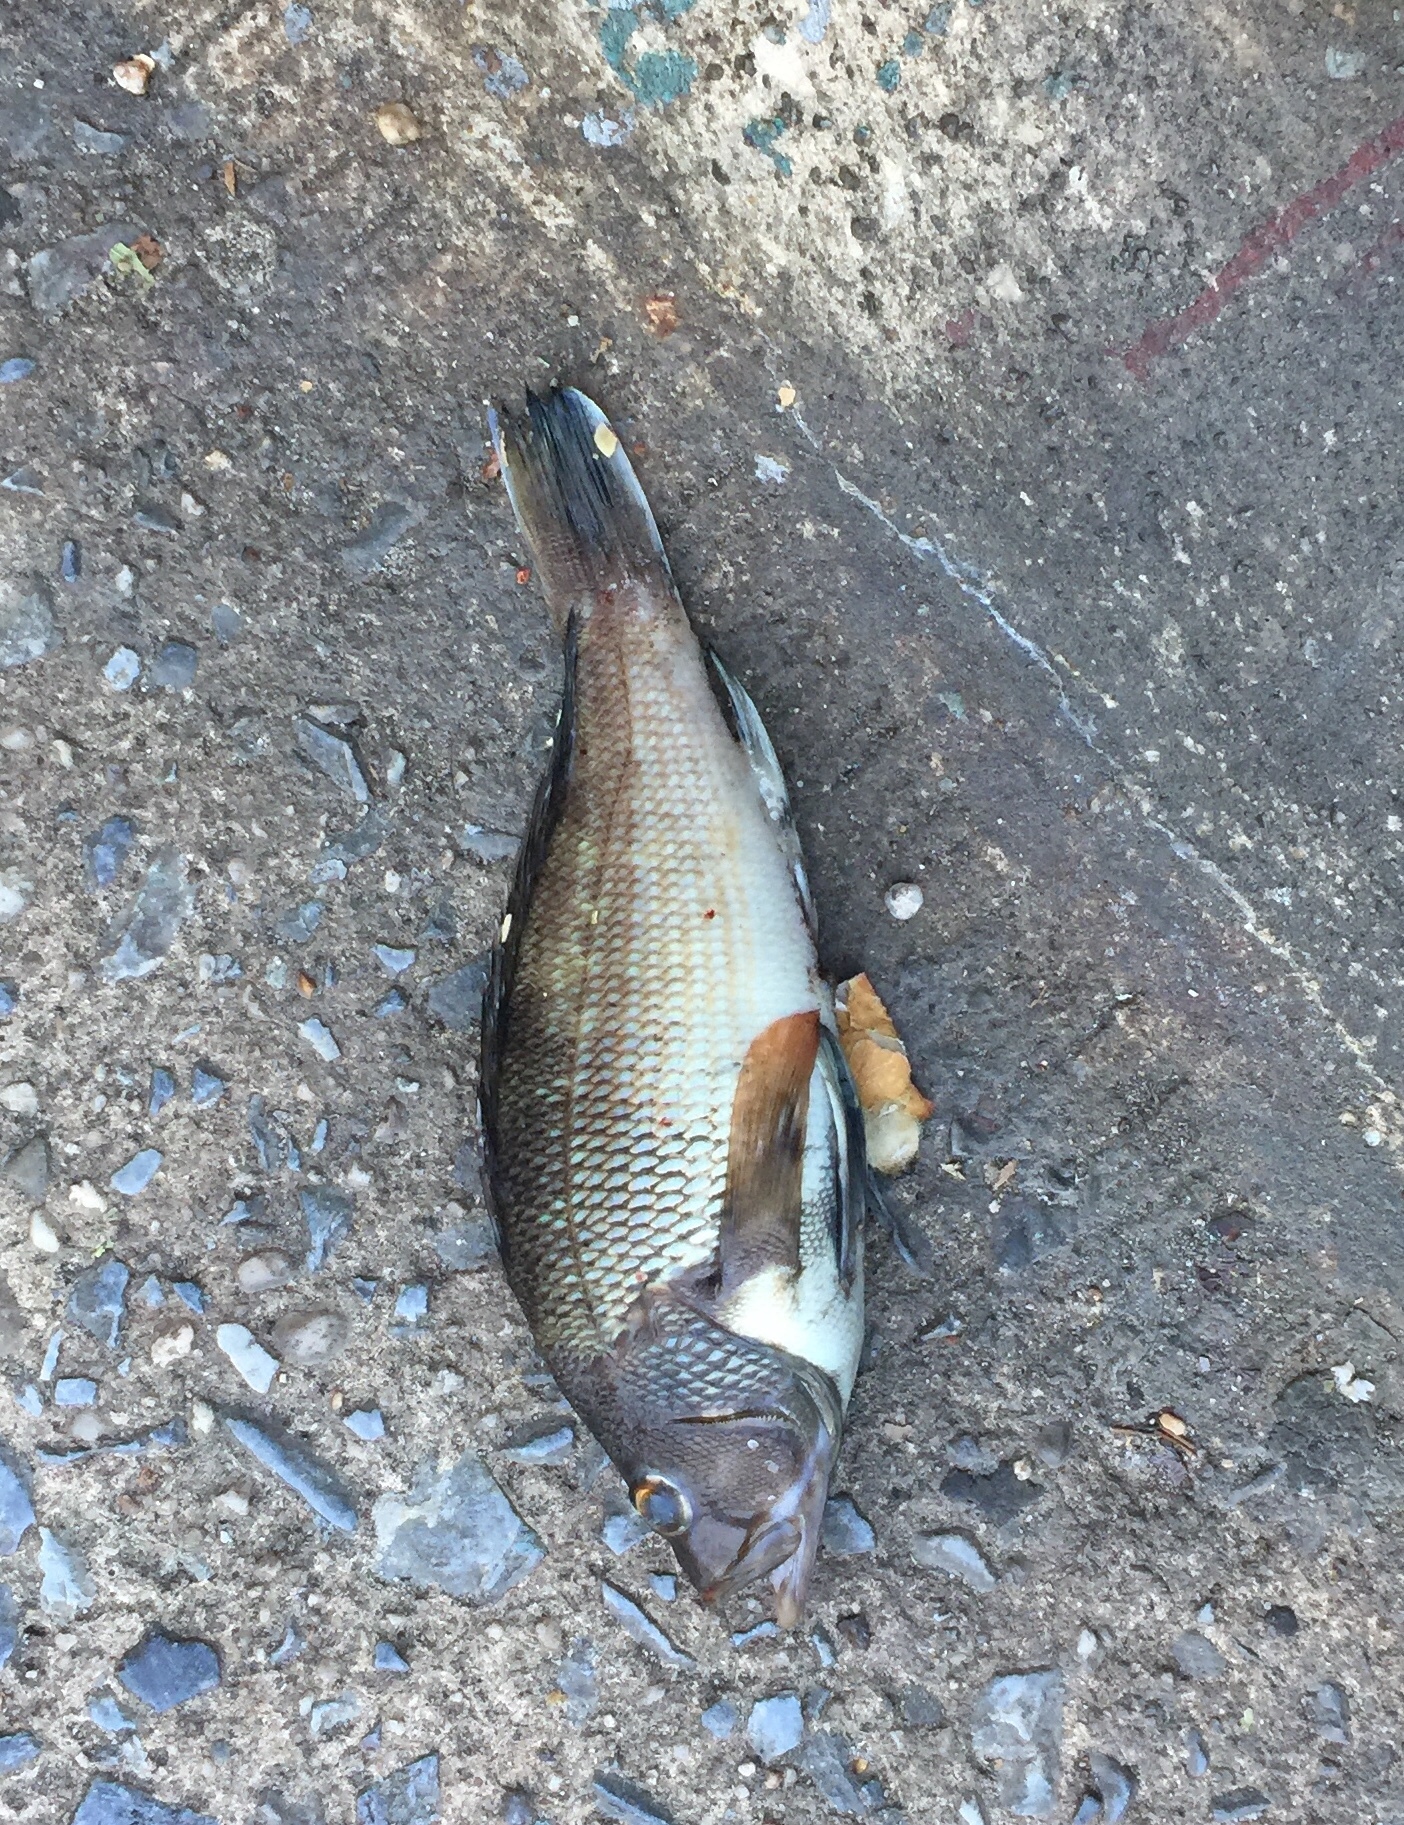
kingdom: Animalia
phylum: Chordata
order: Perciformes
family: Serranidae
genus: Centropristis
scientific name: Centropristis striata
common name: Black sea bass
